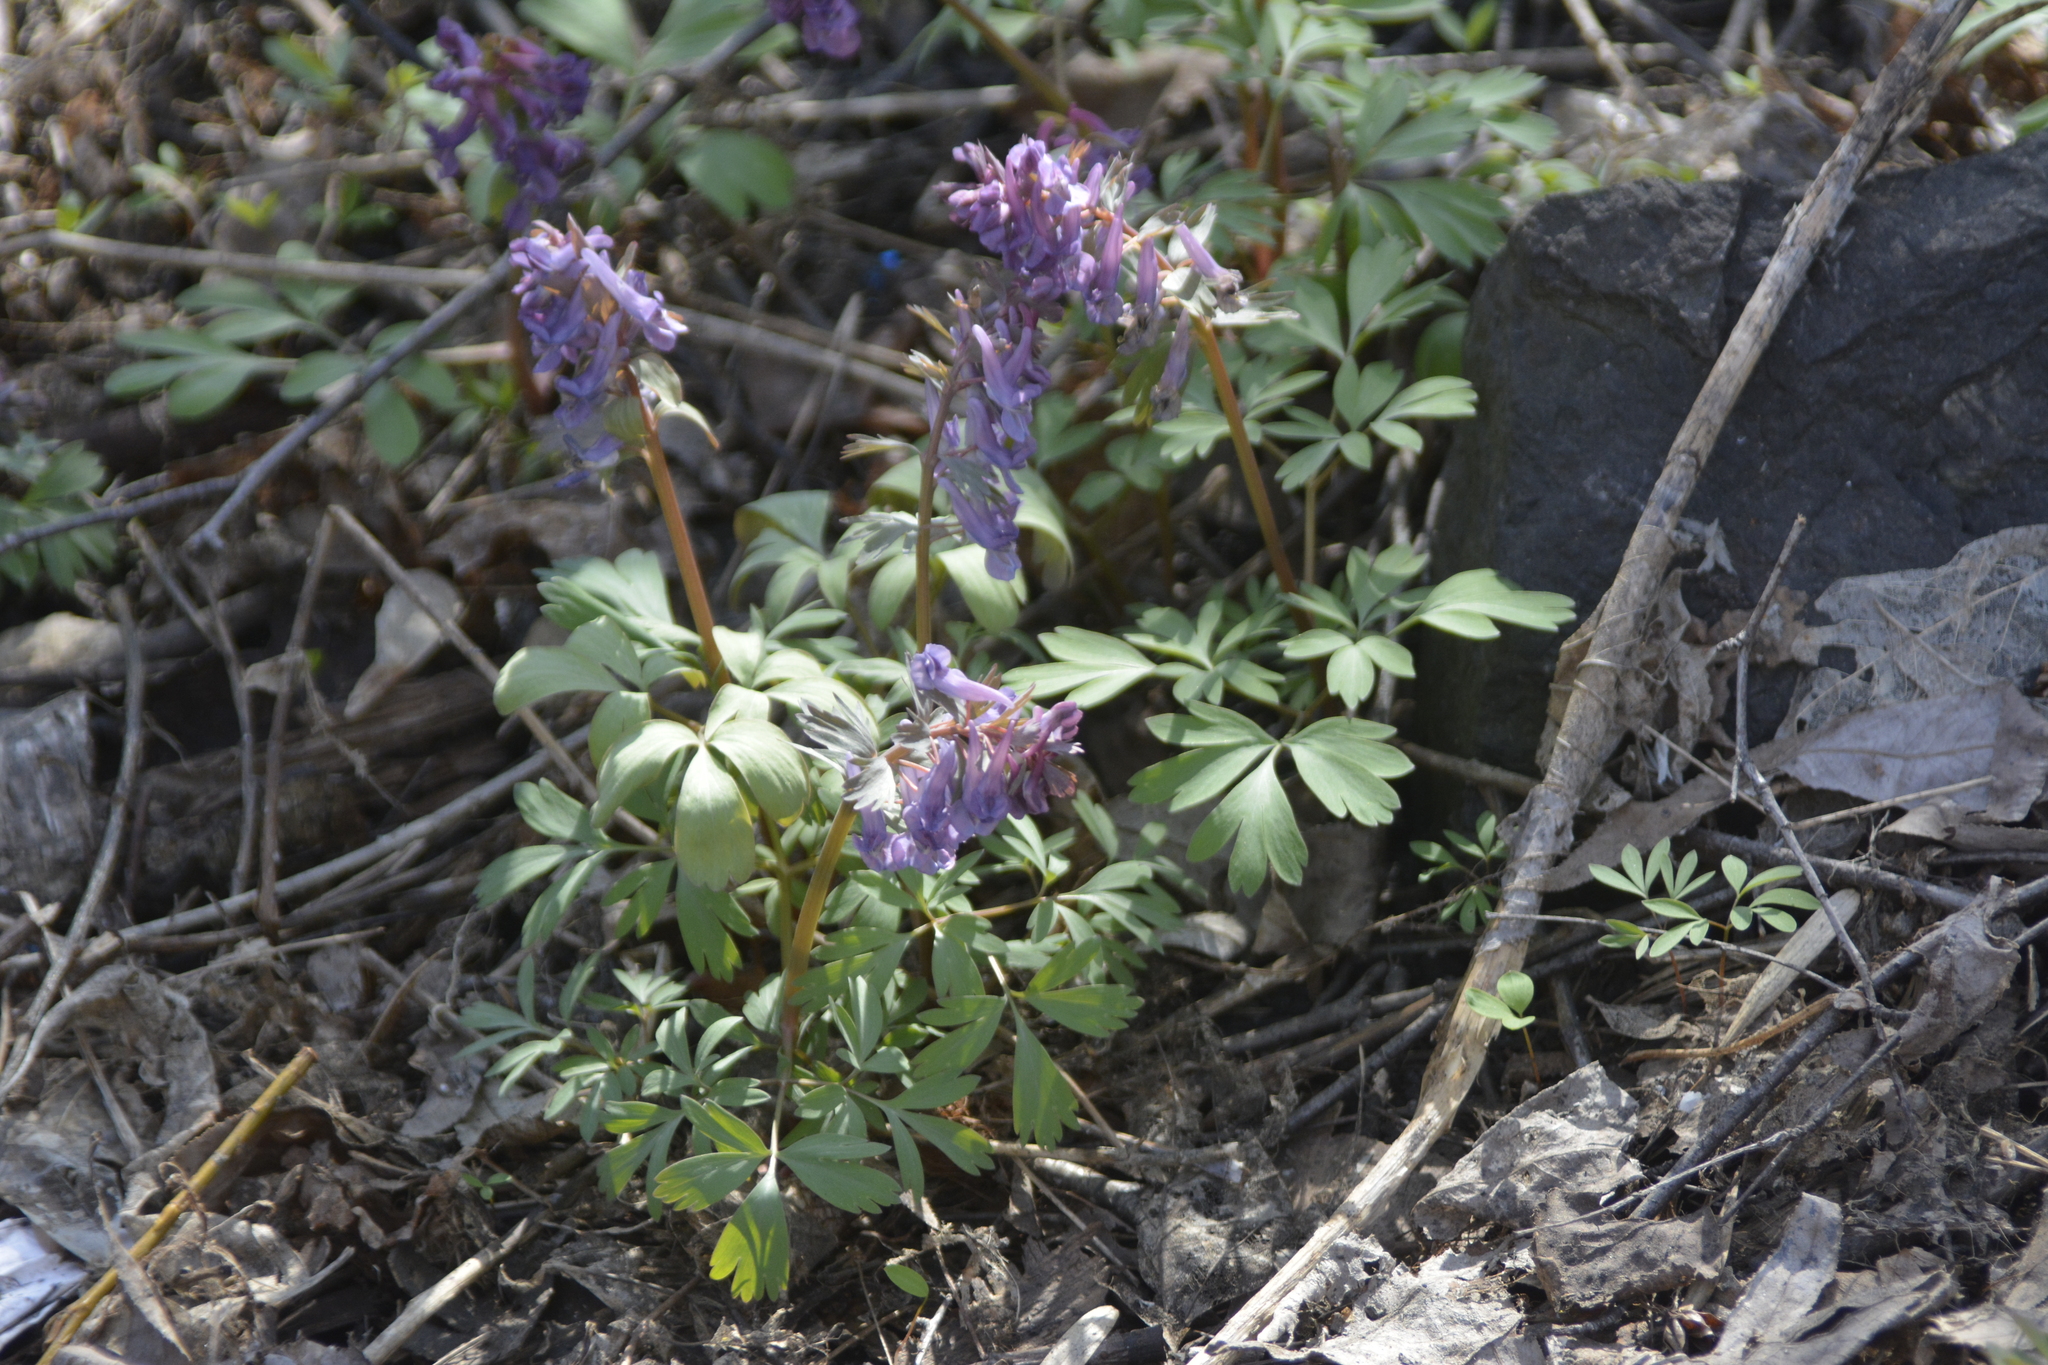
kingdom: Plantae
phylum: Tracheophyta
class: Magnoliopsida
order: Ranunculales
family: Papaveraceae
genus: Corydalis
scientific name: Corydalis solida
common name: Bird-in-a-bush
